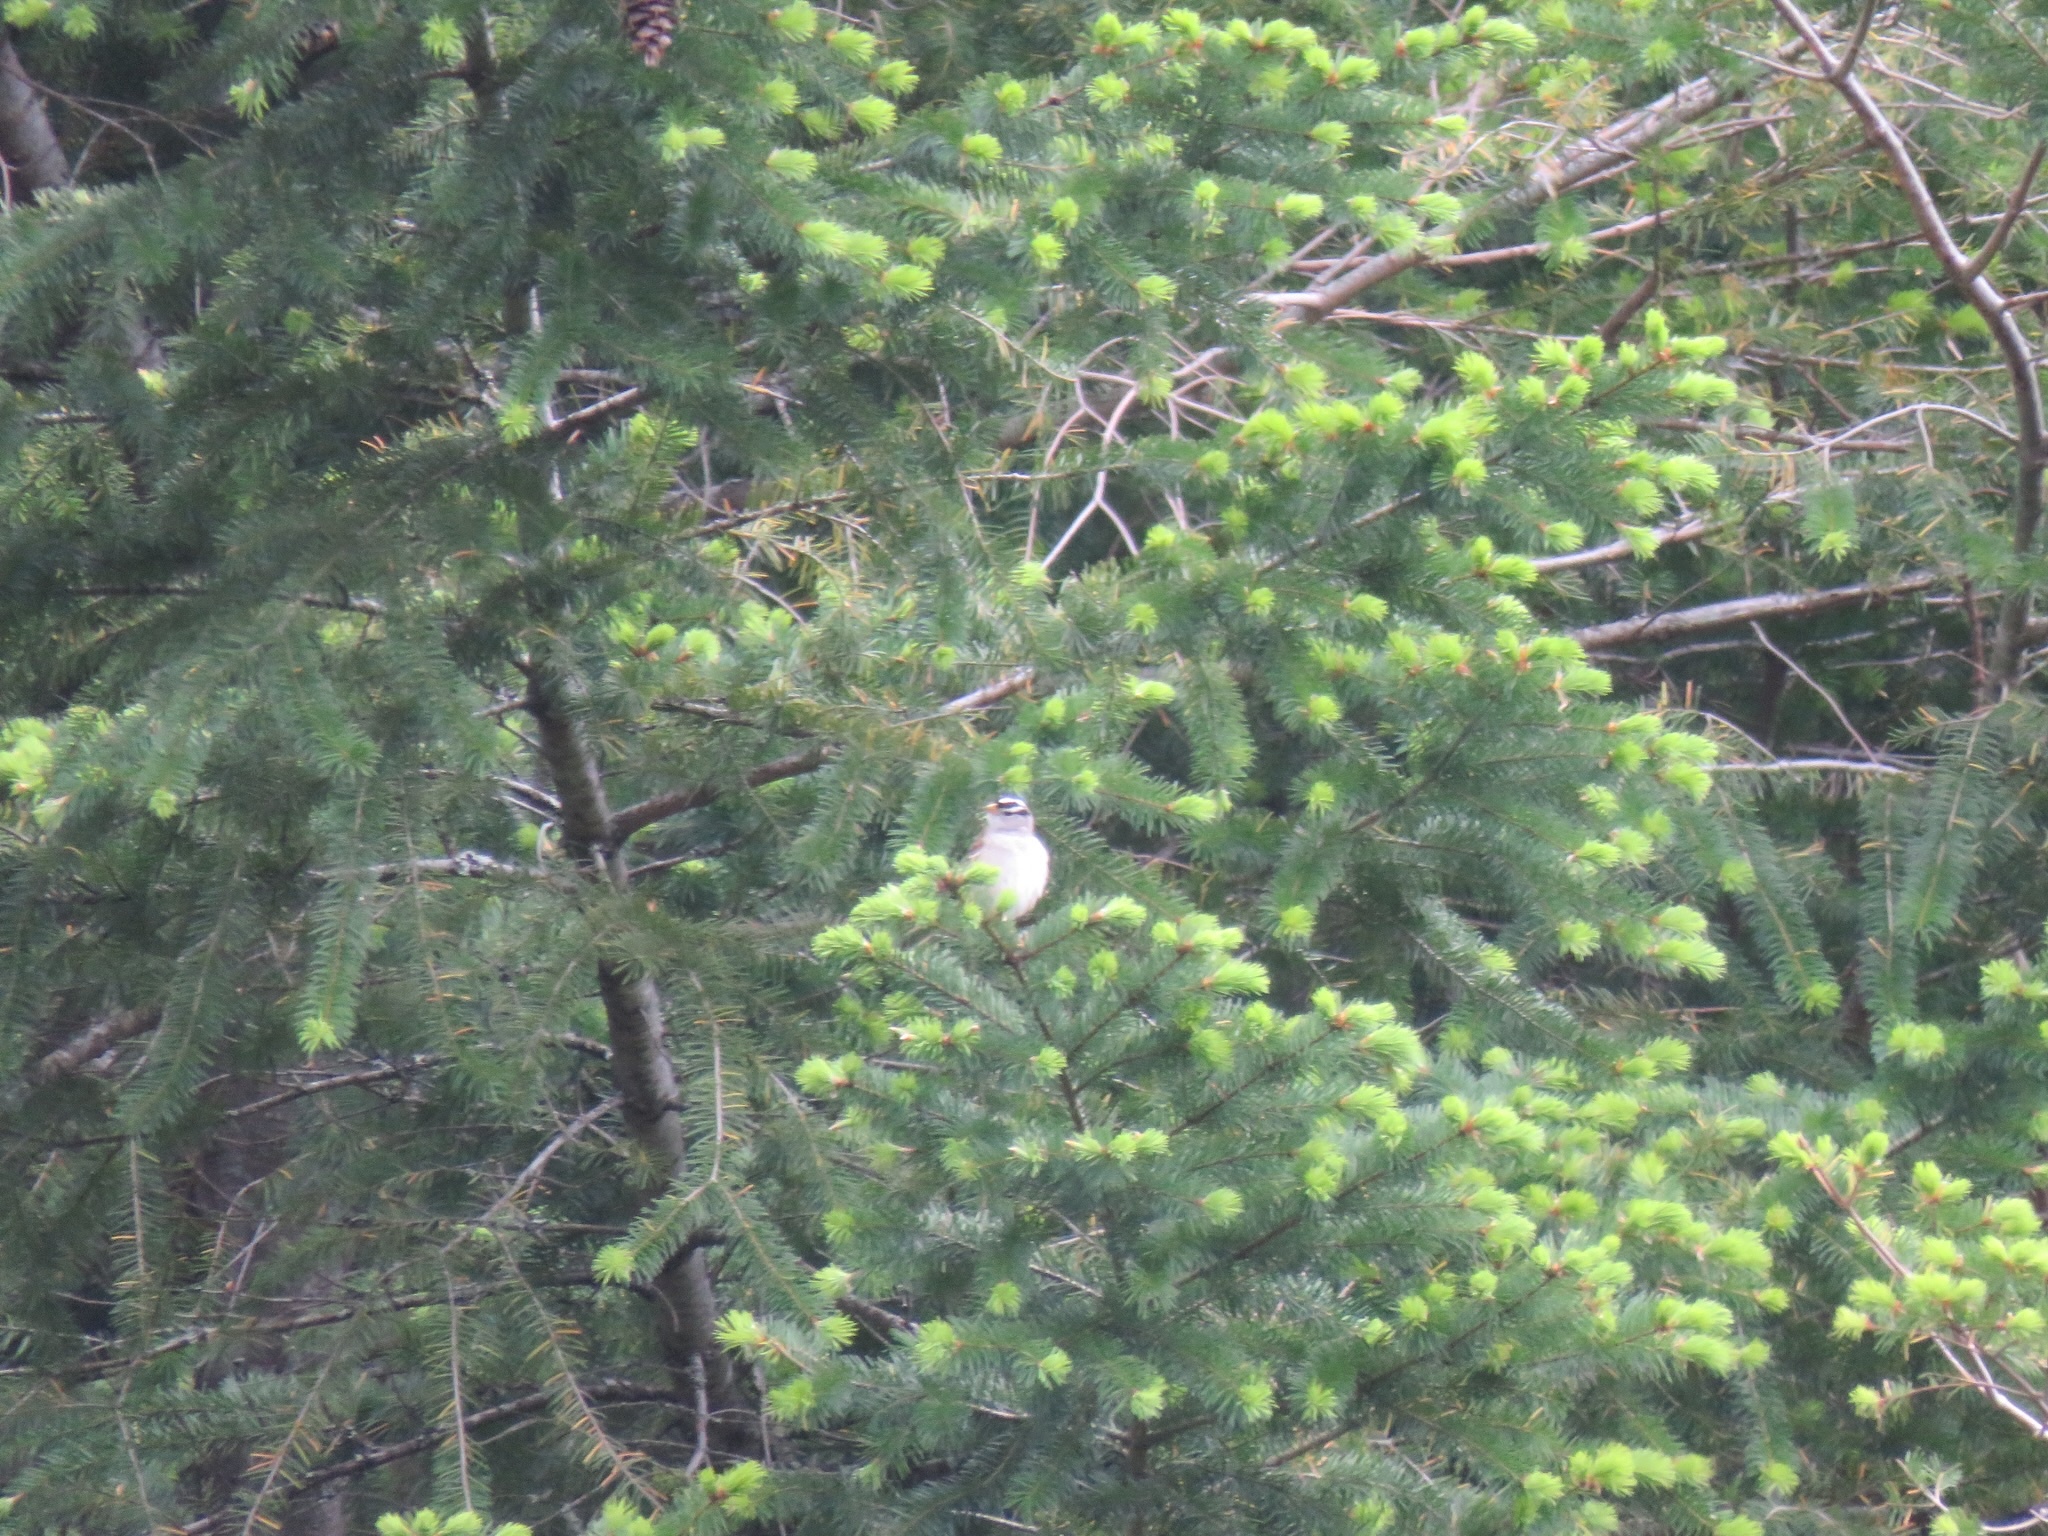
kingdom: Animalia
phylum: Chordata
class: Aves
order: Passeriformes
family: Passerellidae
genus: Zonotrichia
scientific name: Zonotrichia leucophrys
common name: White-crowned sparrow
